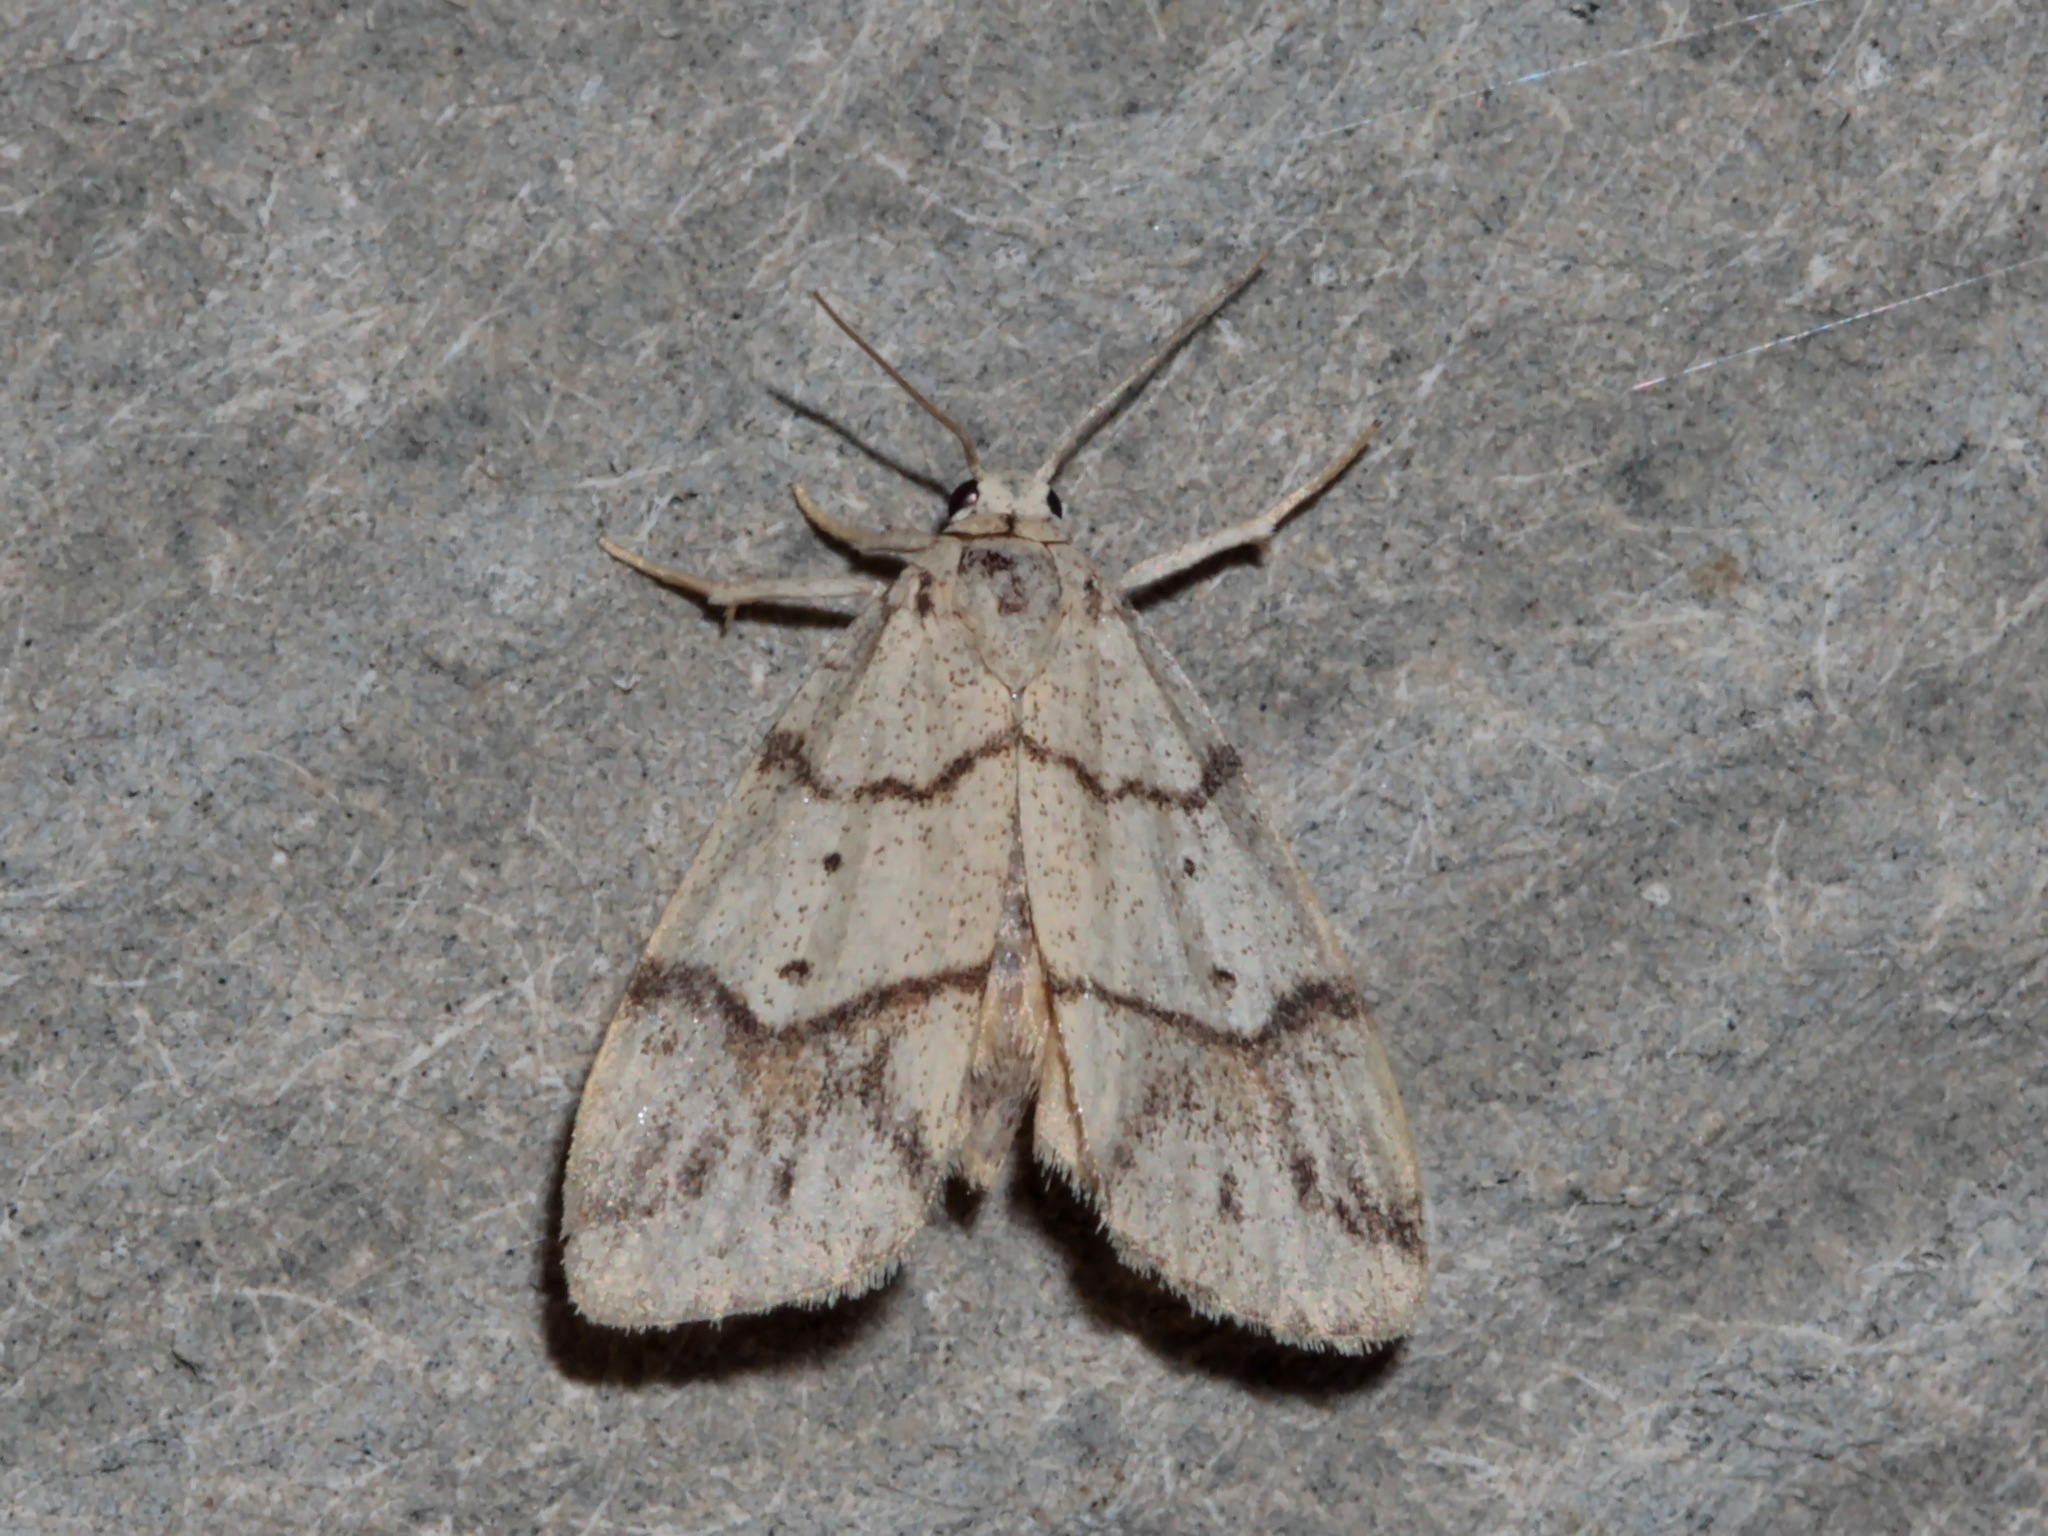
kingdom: Animalia
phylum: Arthropoda
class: Insecta
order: Lepidoptera
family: Erebidae
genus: Holocraspedon
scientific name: Holocraspedon bilineata
